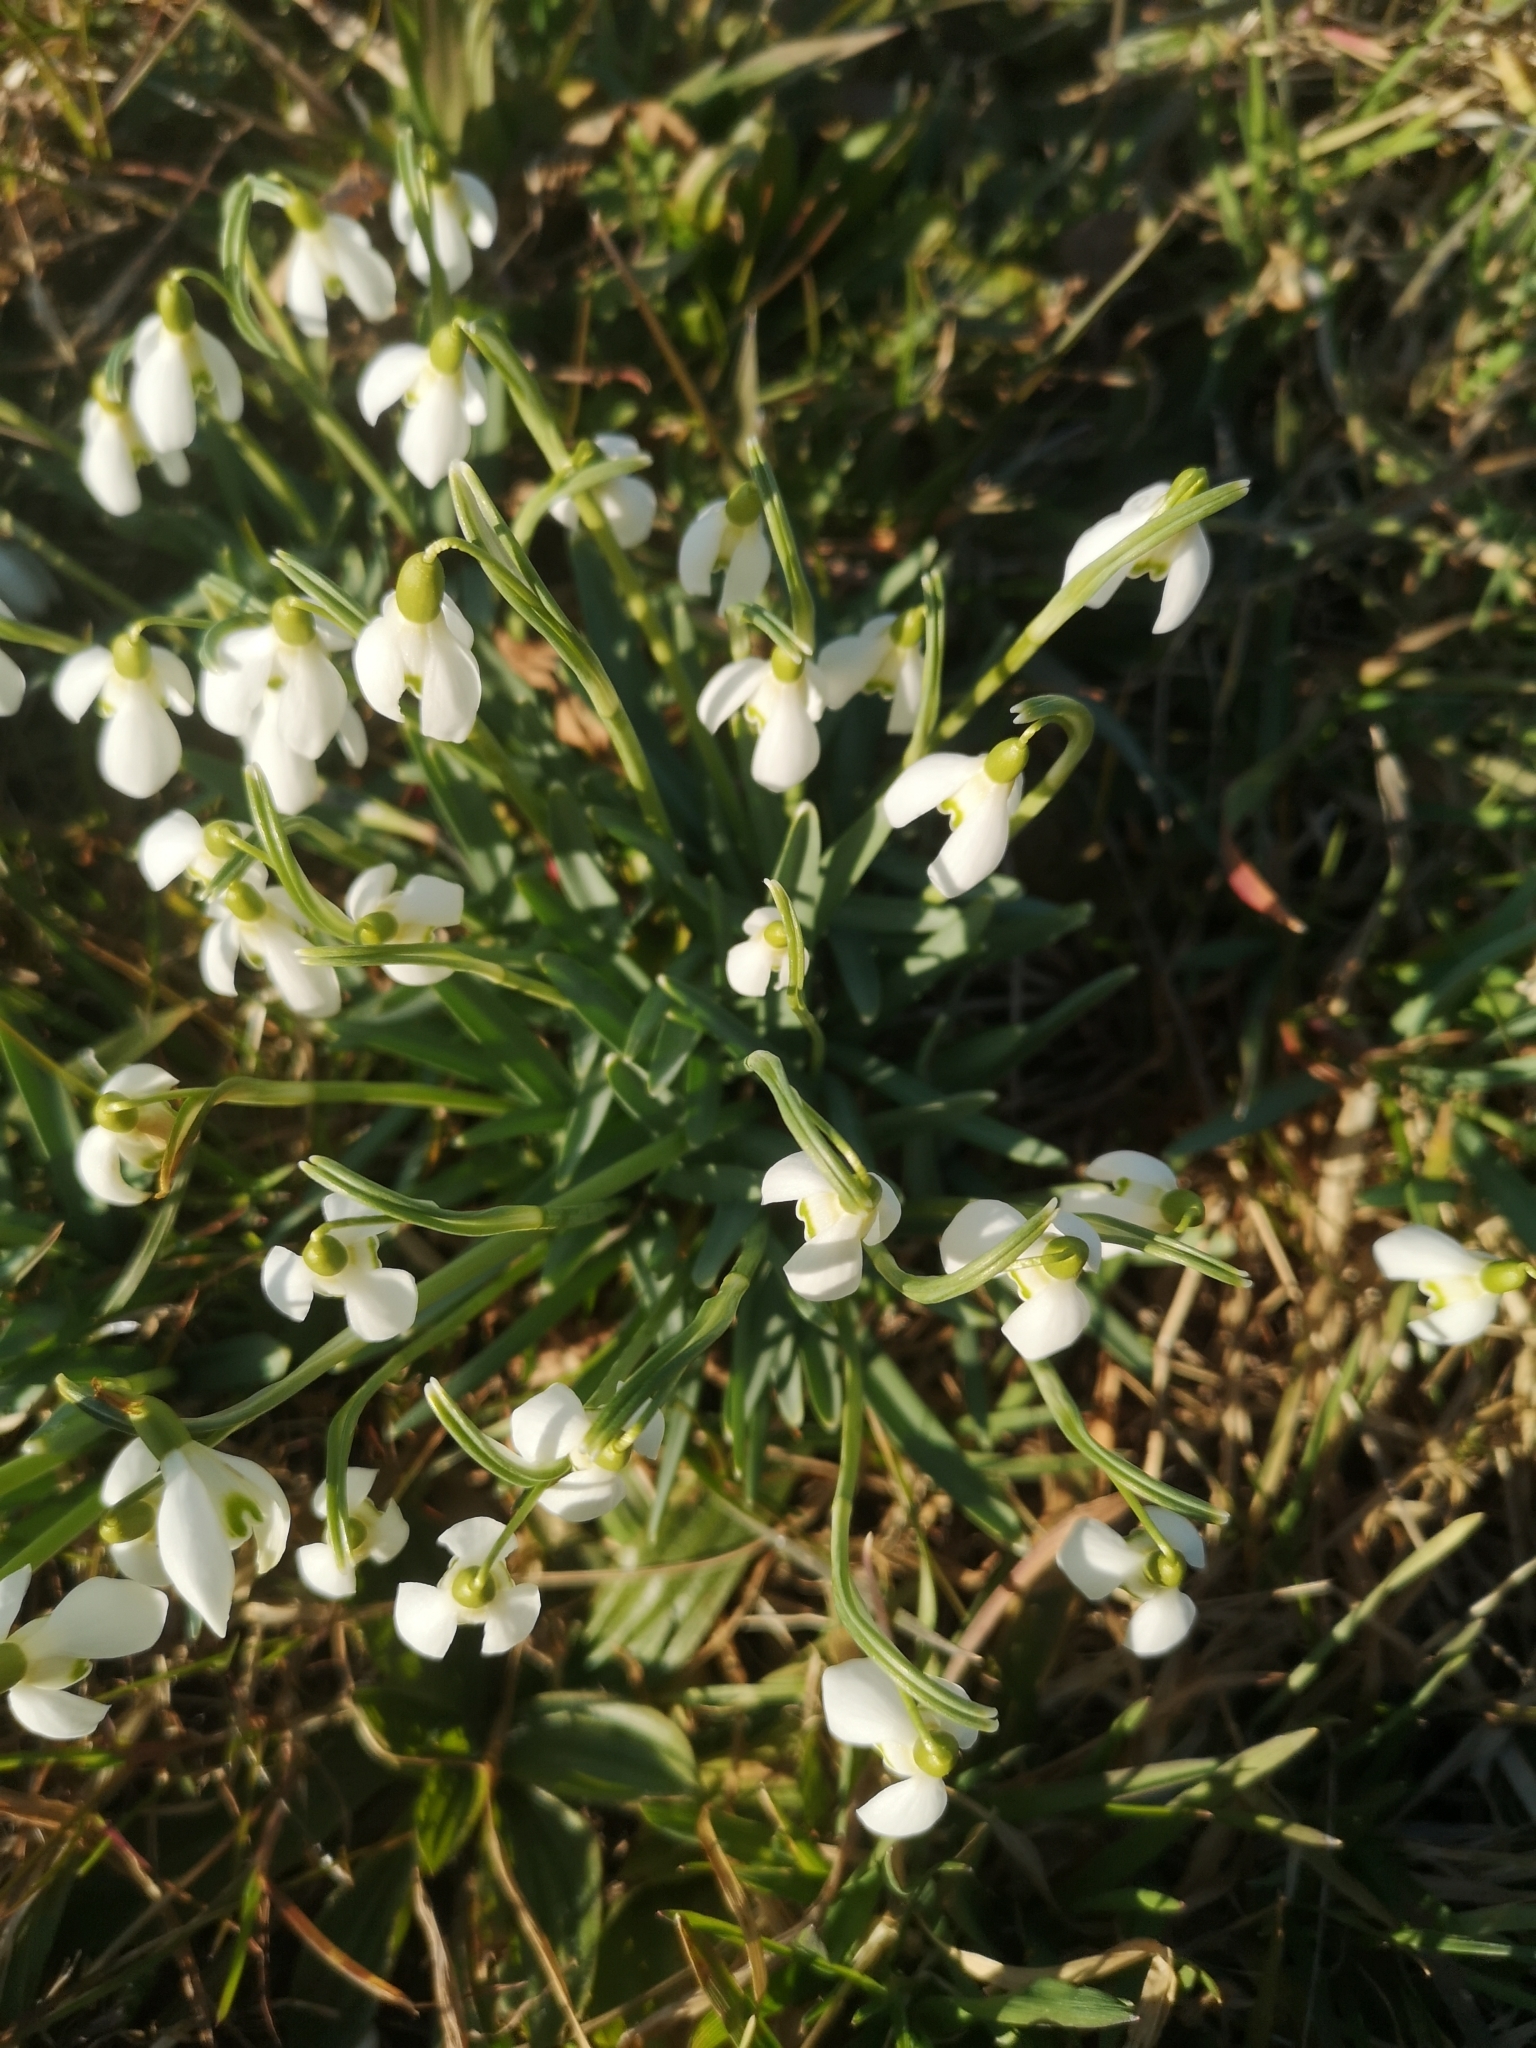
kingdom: Plantae
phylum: Tracheophyta
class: Liliopsida
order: Asparagales
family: Amaryllidaceae
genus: Galanthus
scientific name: Galanthus nivalis
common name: Snowdrop
